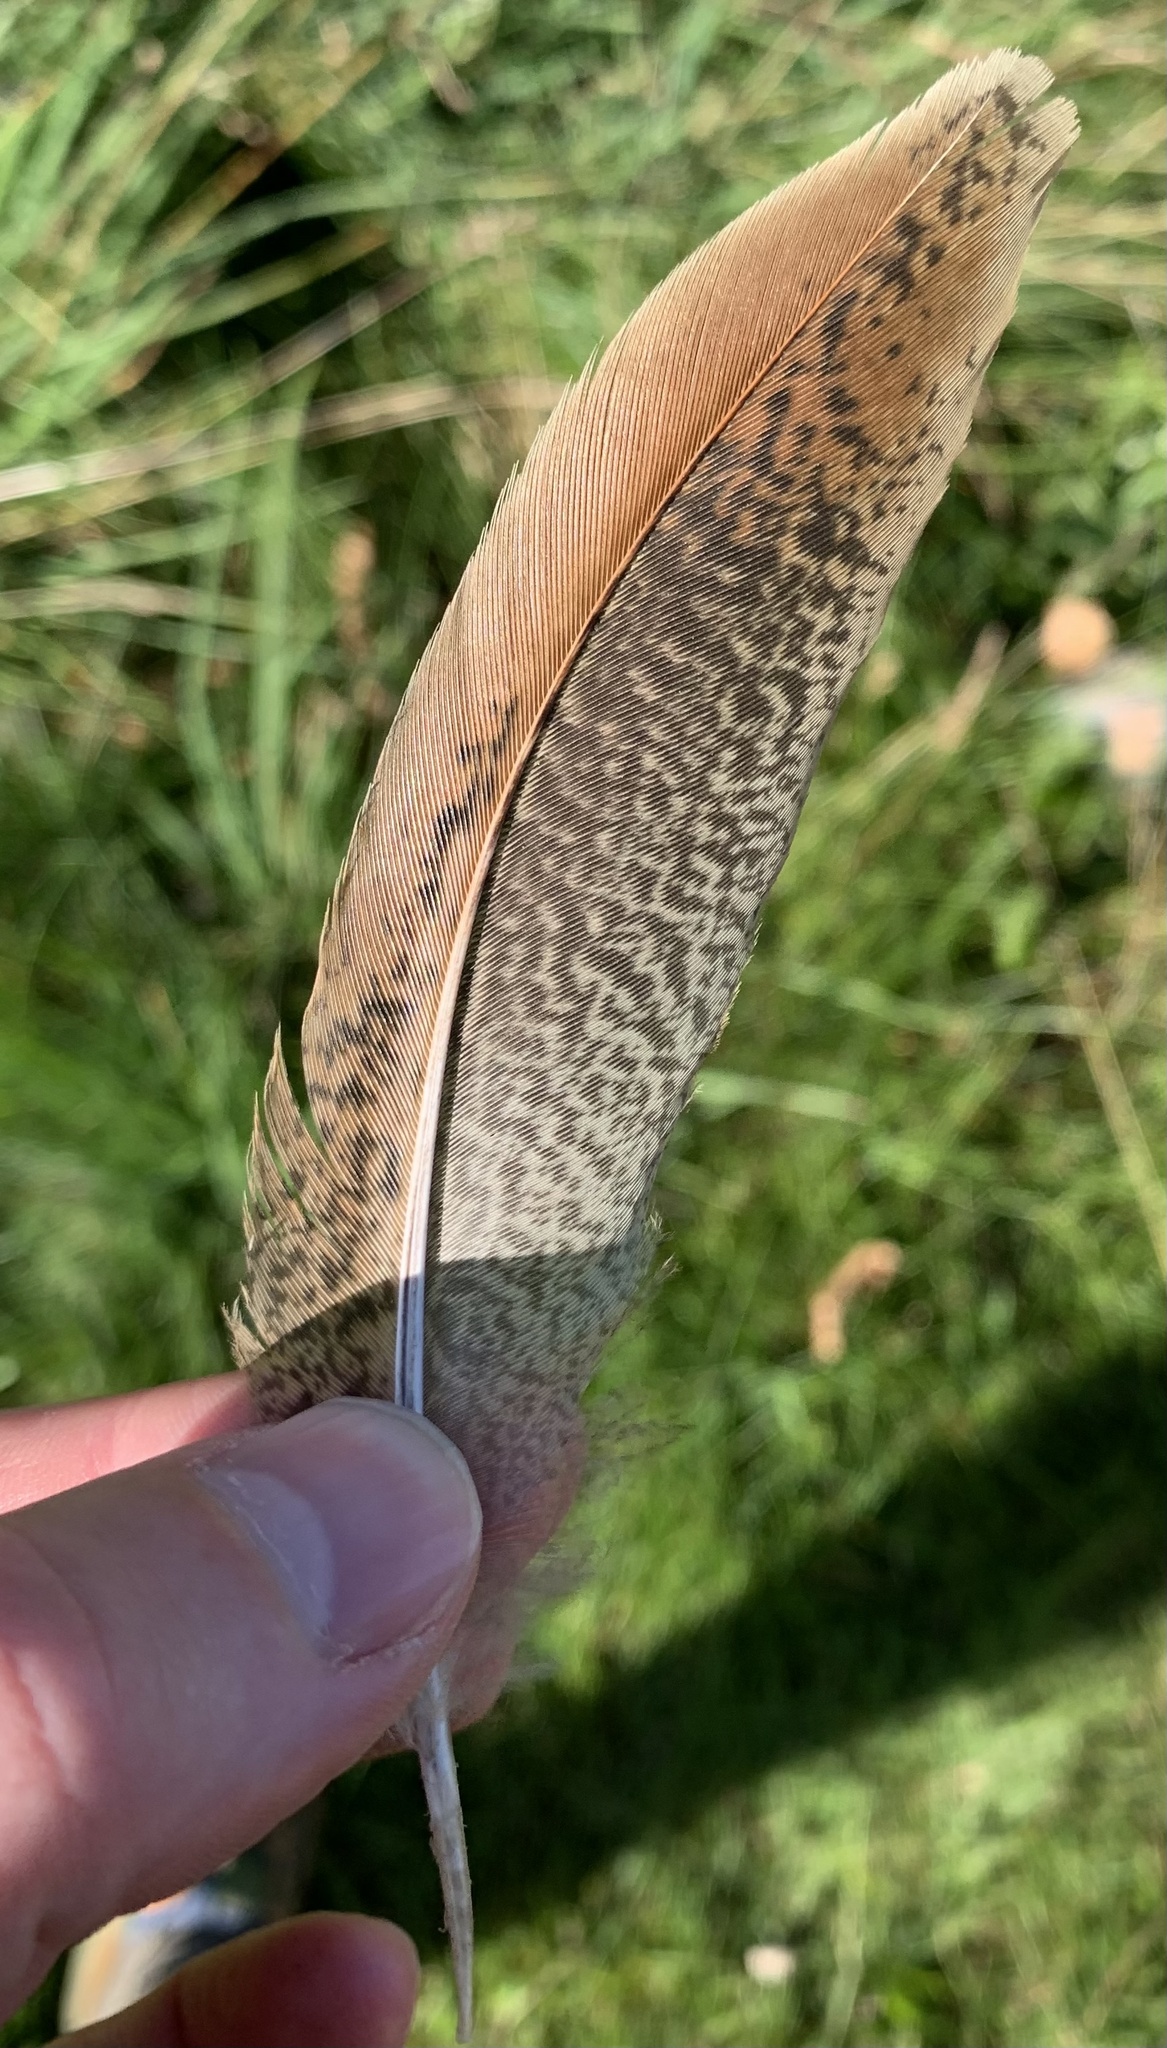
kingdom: Animalia
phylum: Chordata
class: Aves
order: Galliformes
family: Phasianidae
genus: Phasianus
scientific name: Phasianus colchicus
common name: Common pheasant
